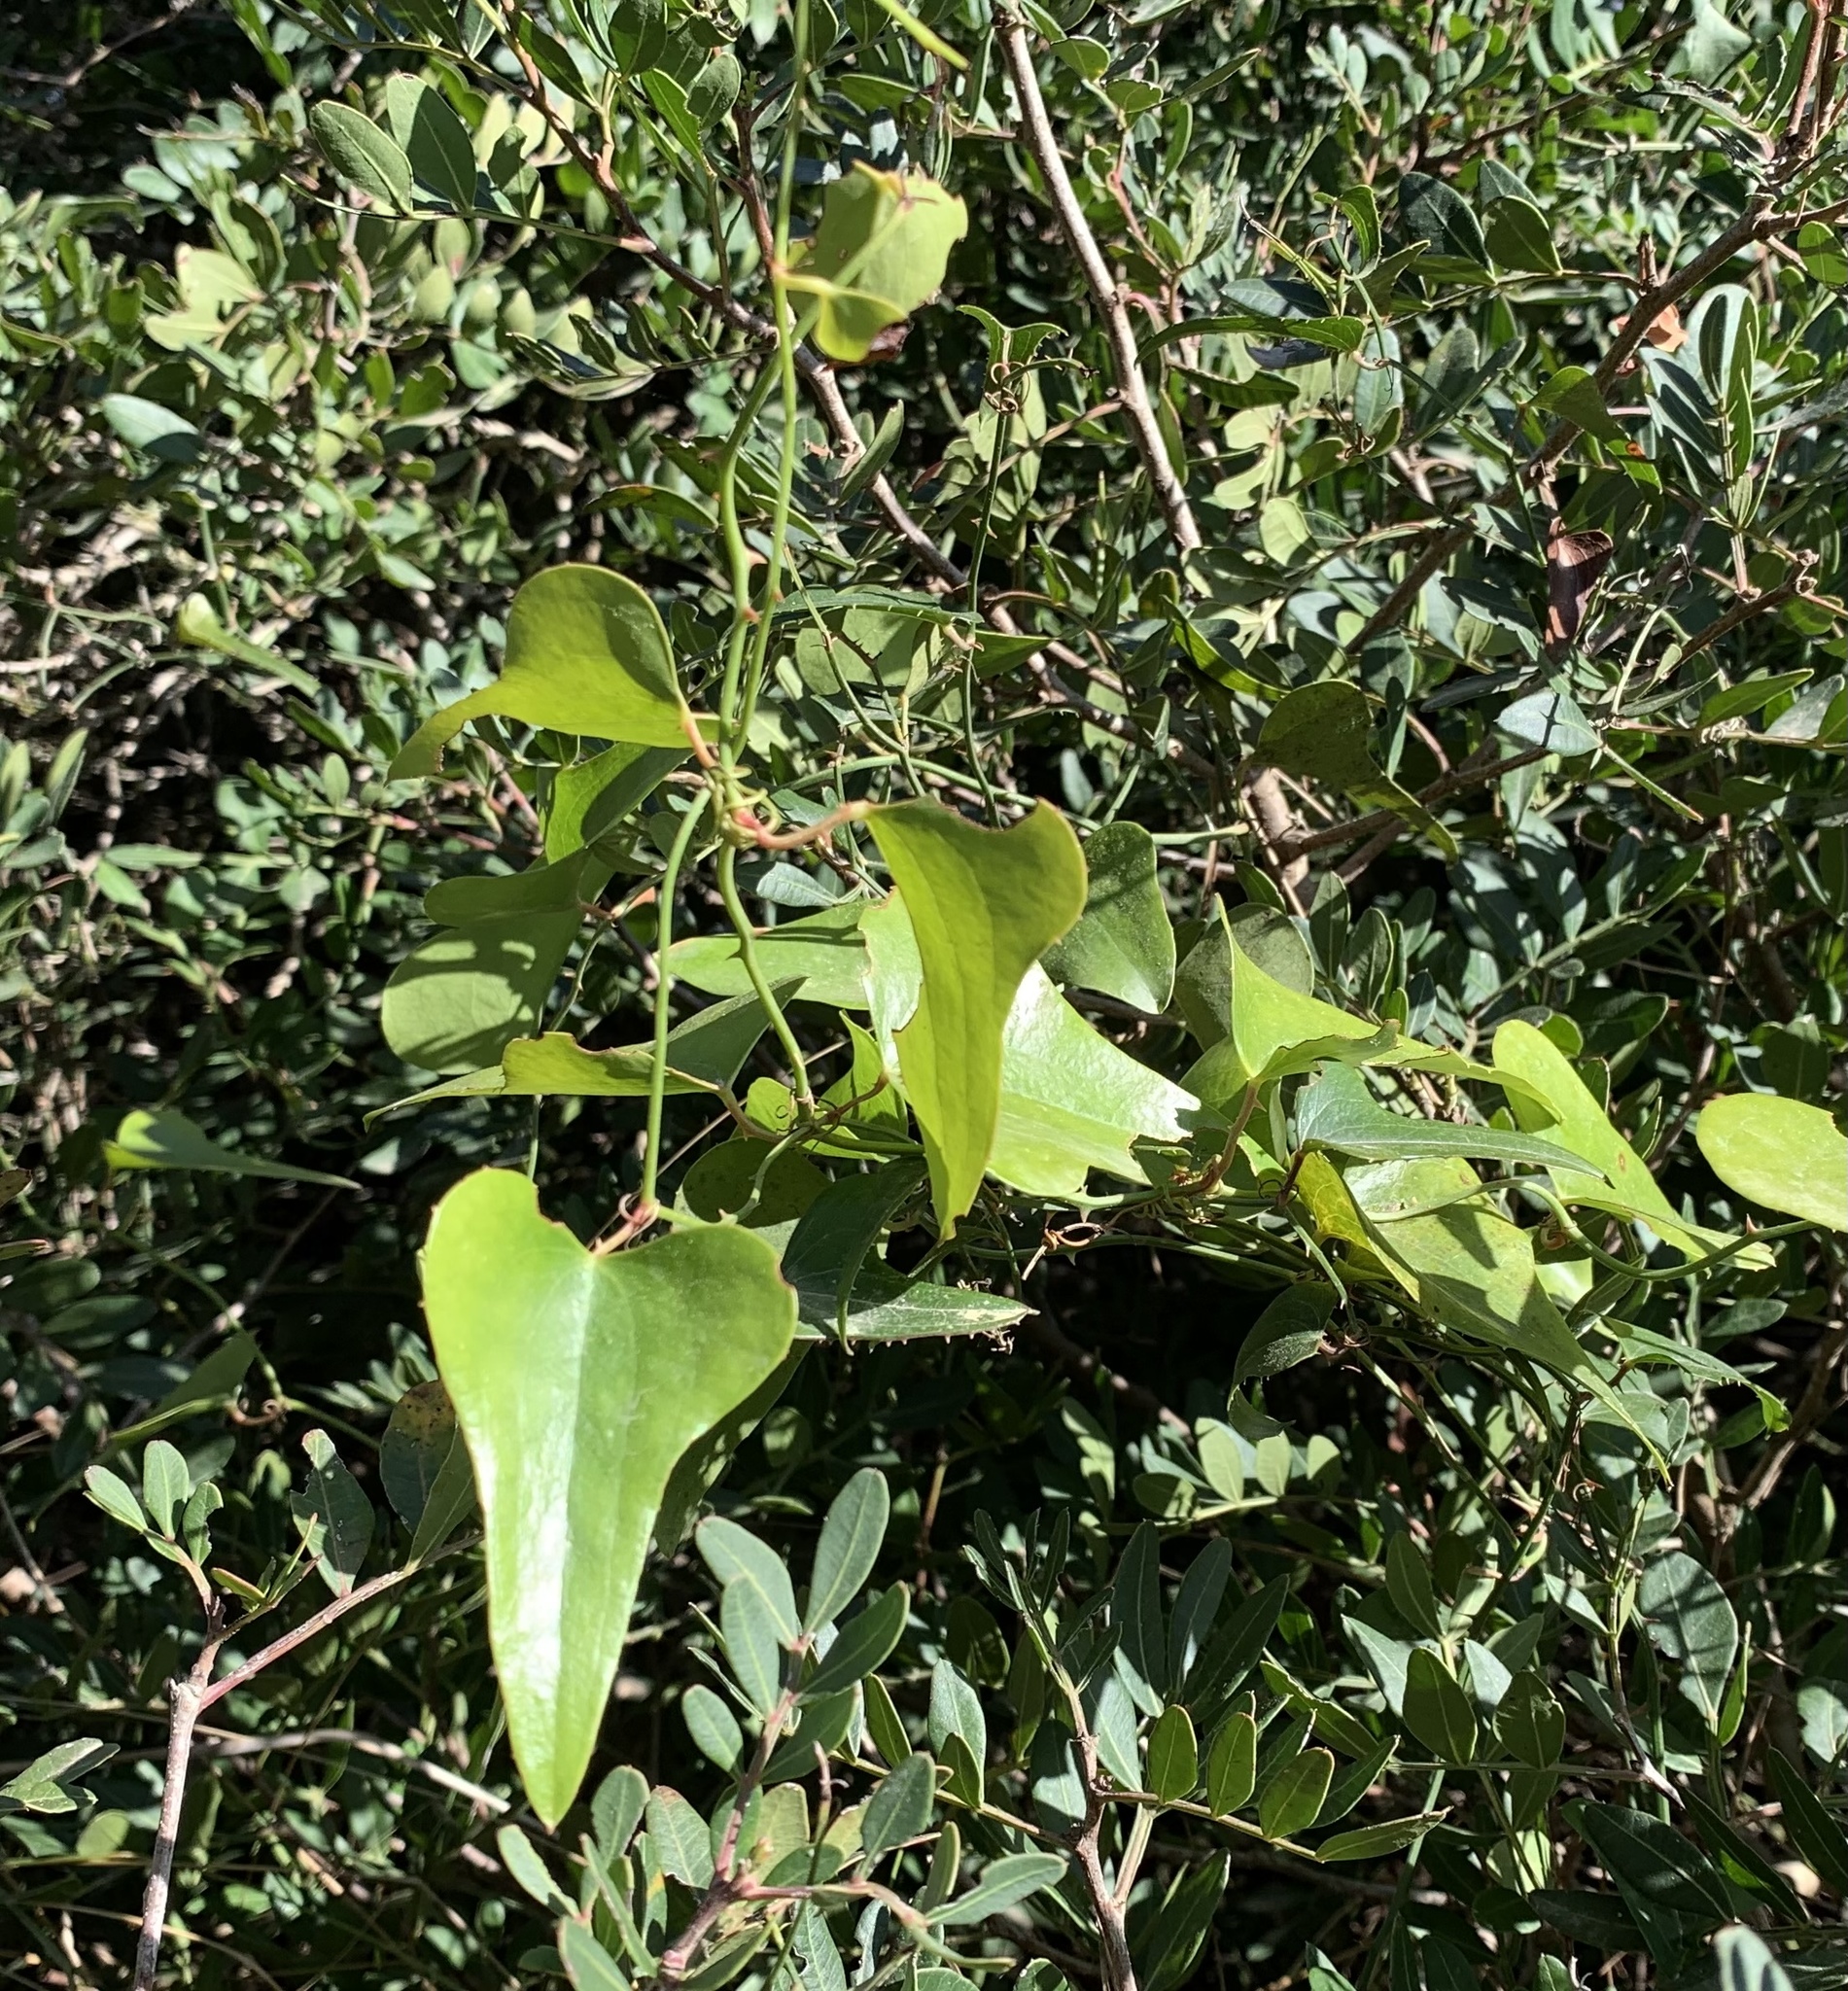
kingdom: Plantae
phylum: Tracheophyta
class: Liliopsida
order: Liliales
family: Smilacaceae
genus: Smilax
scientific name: Smilax aspera
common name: Common smilax
